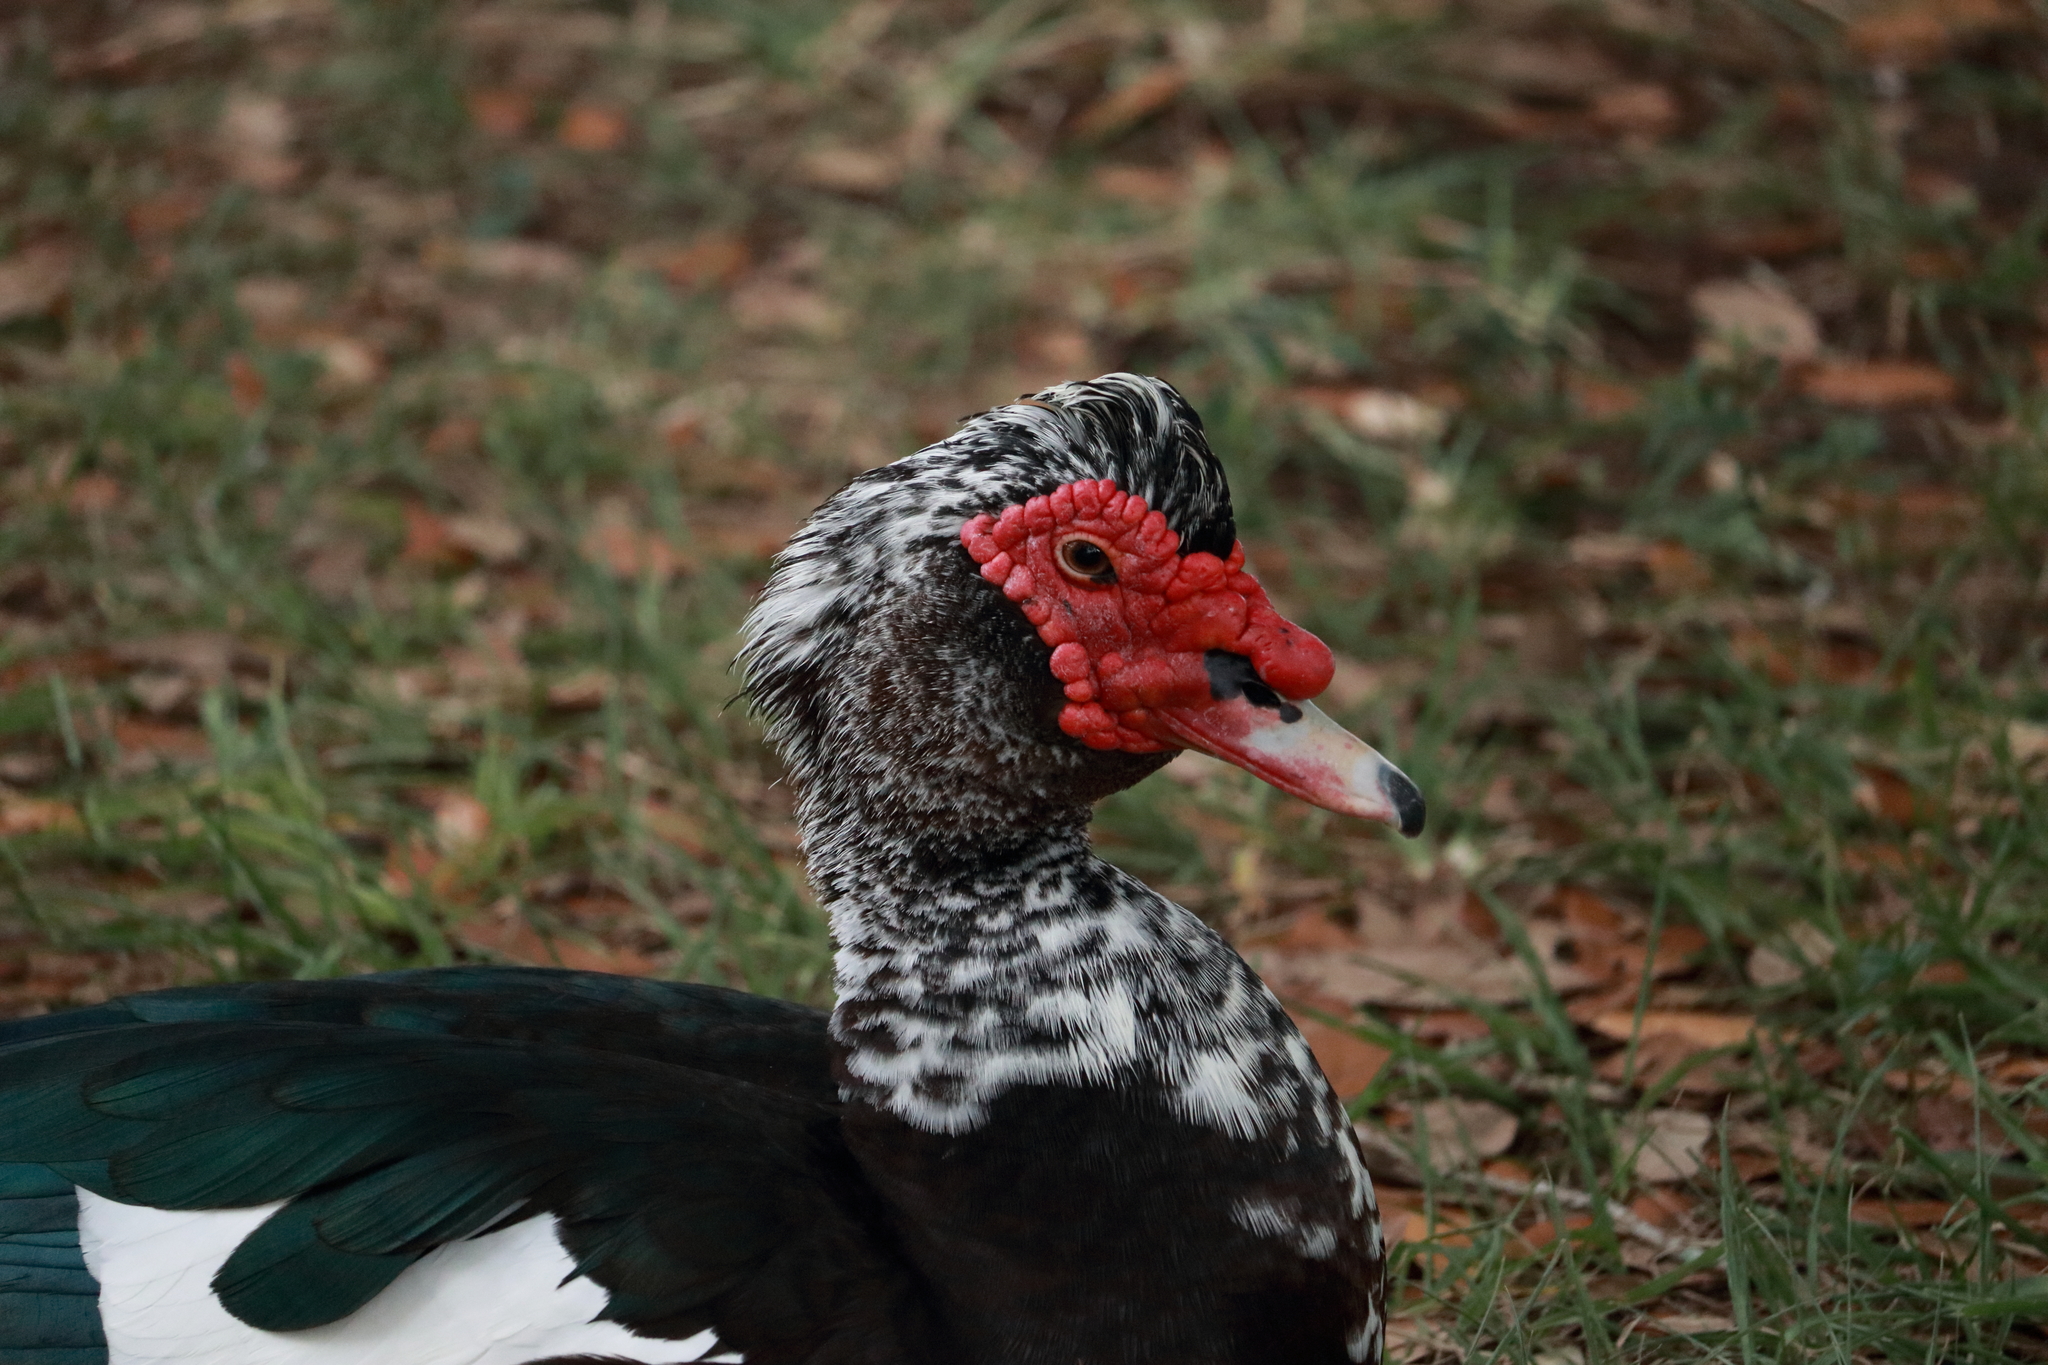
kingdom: Animalia
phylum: Chordata
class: Aves
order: Anseriformes
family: Anatidae
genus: Cairina
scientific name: Cairina moschata
